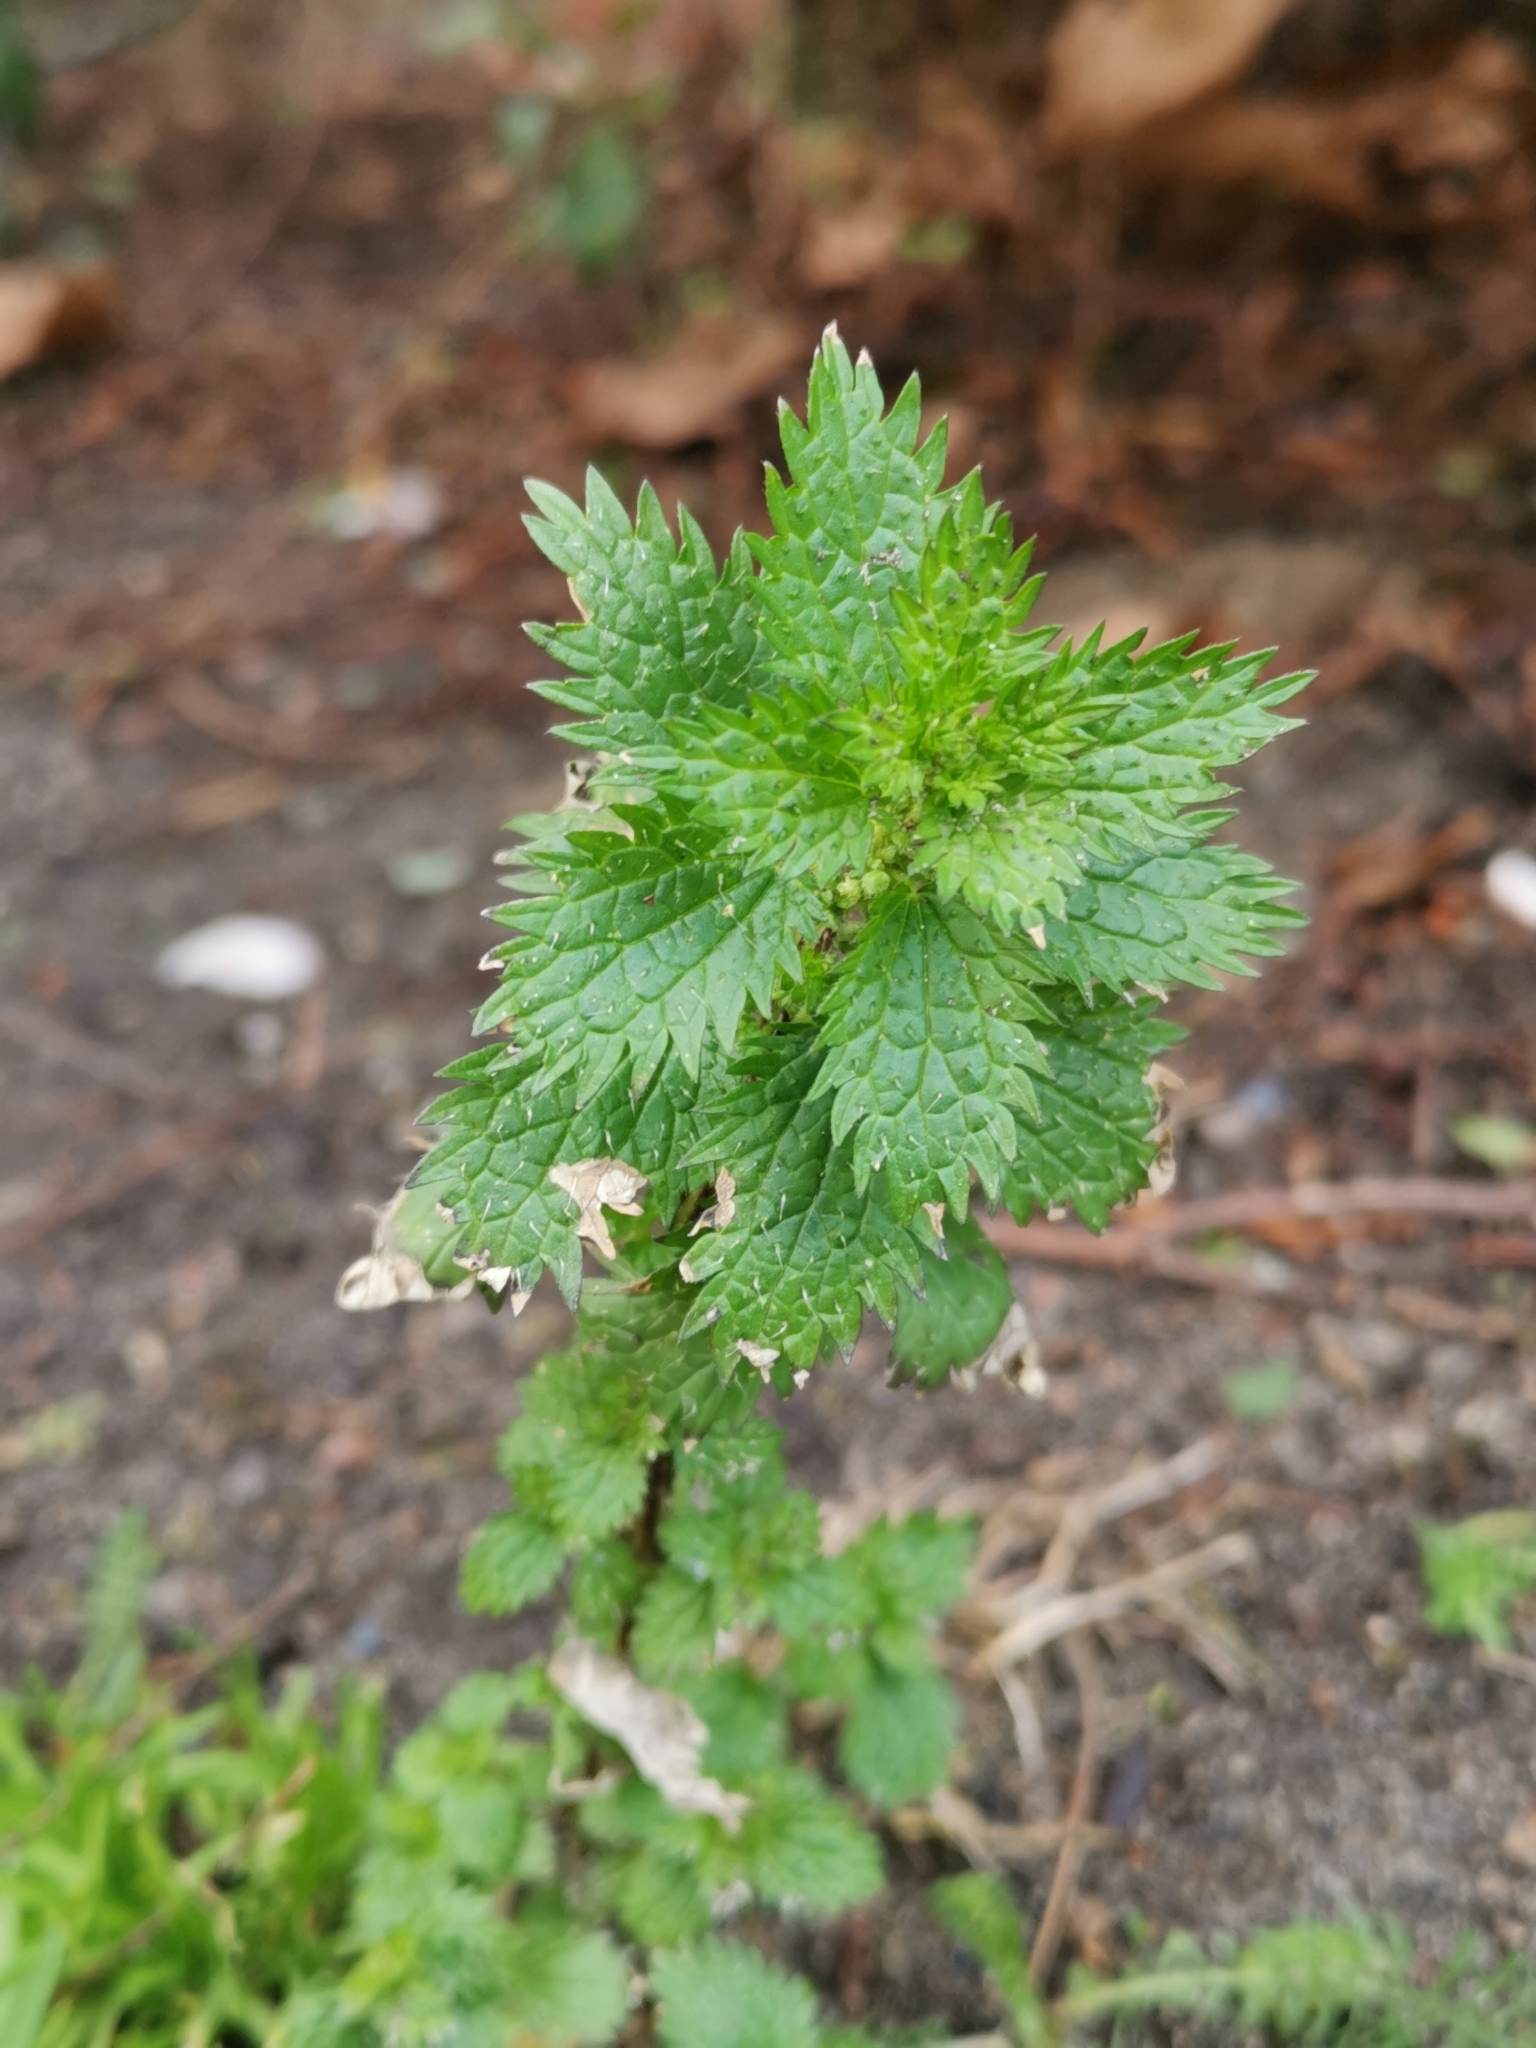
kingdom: Plantae
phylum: Tracheophyta
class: Magnoliopsida
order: Rosales
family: Urticaceae
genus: Urtica
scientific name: Urtica urens
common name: Dwarf nettle
